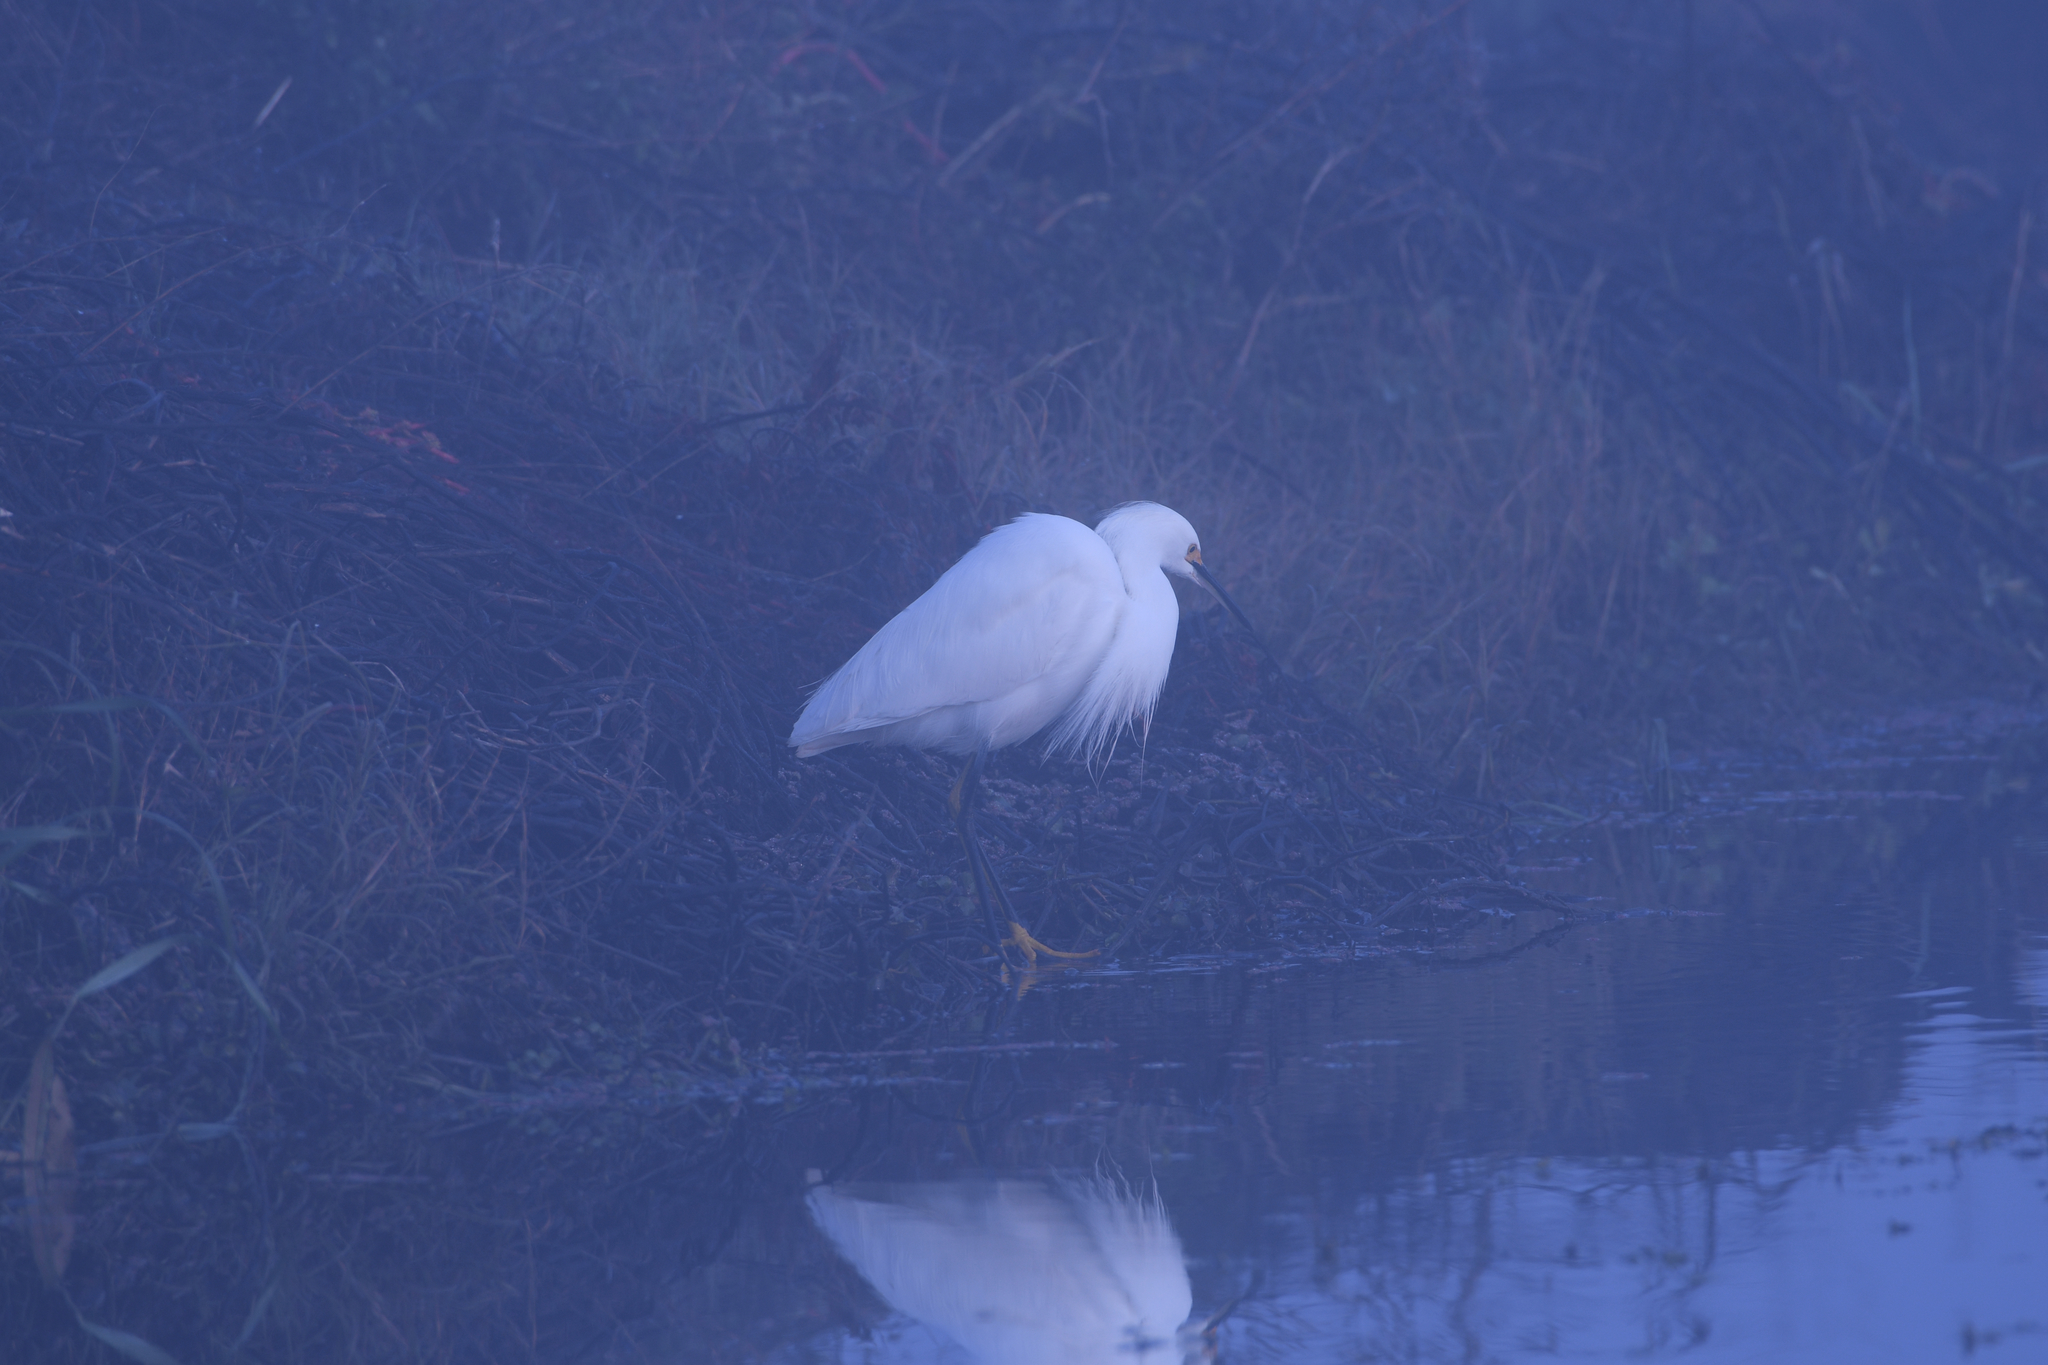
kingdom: Animalia
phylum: Chordata
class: Aves
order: Pelecaniformes
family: Ardeidae
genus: Egretta
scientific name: Egretta thula
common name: Snowy egret
